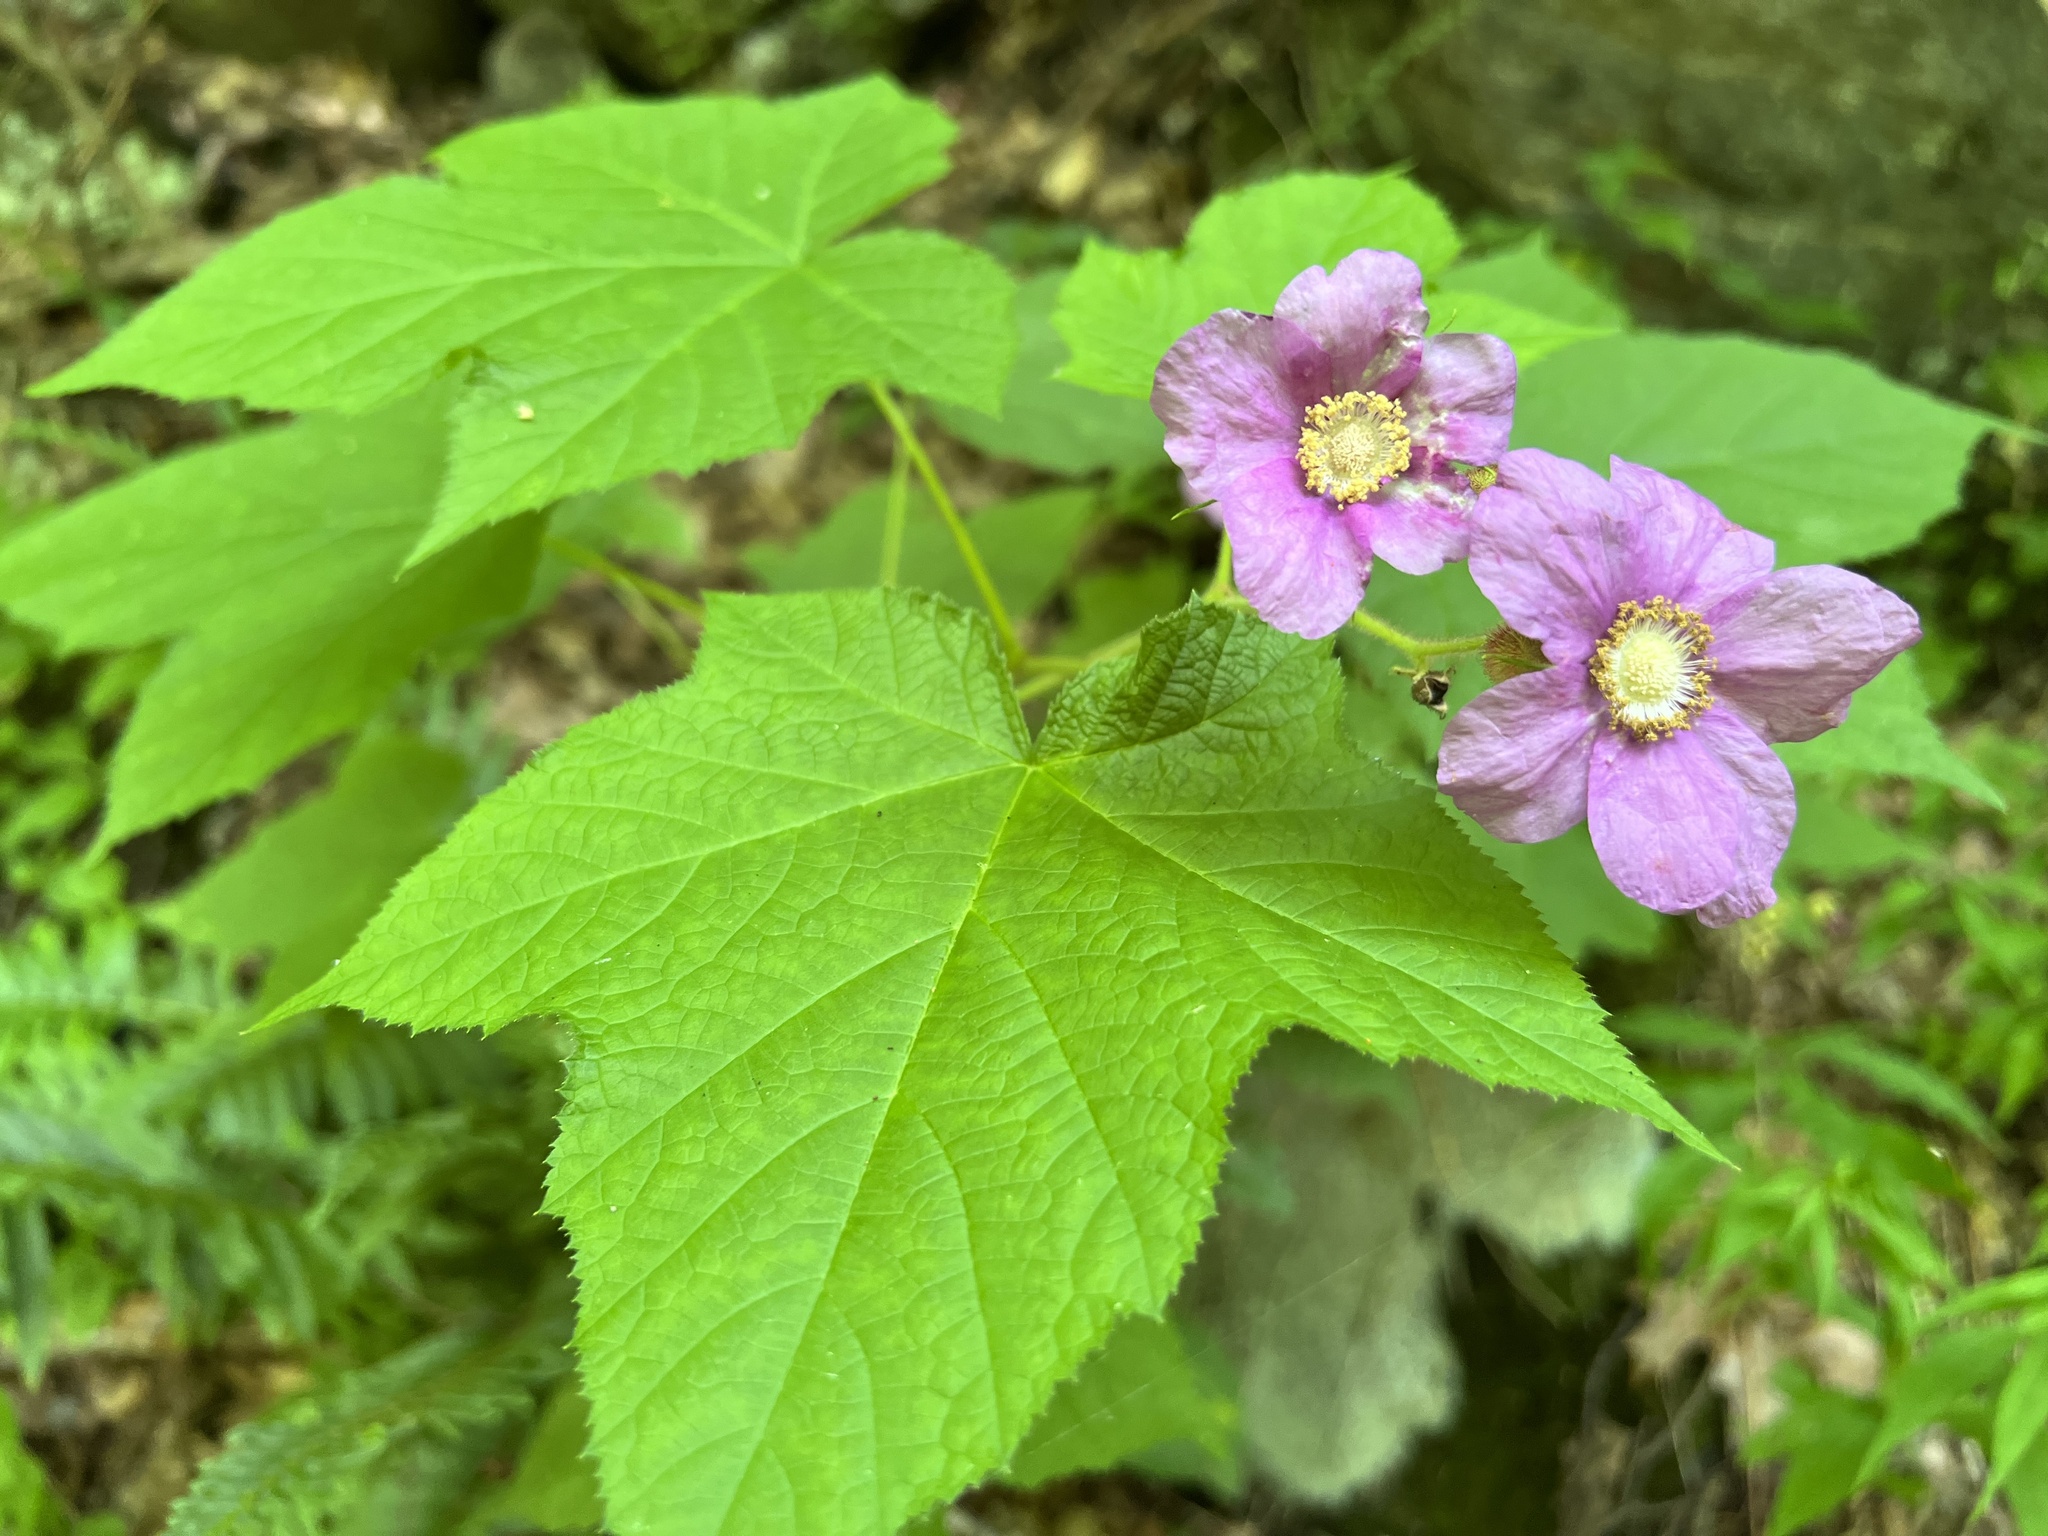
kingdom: Plantae
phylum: Tracheophyta
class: Magnoliopsida
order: Rosales
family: Rosaceae
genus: Rubus
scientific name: Rubus odoratus
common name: Purple-flowered raspberry
